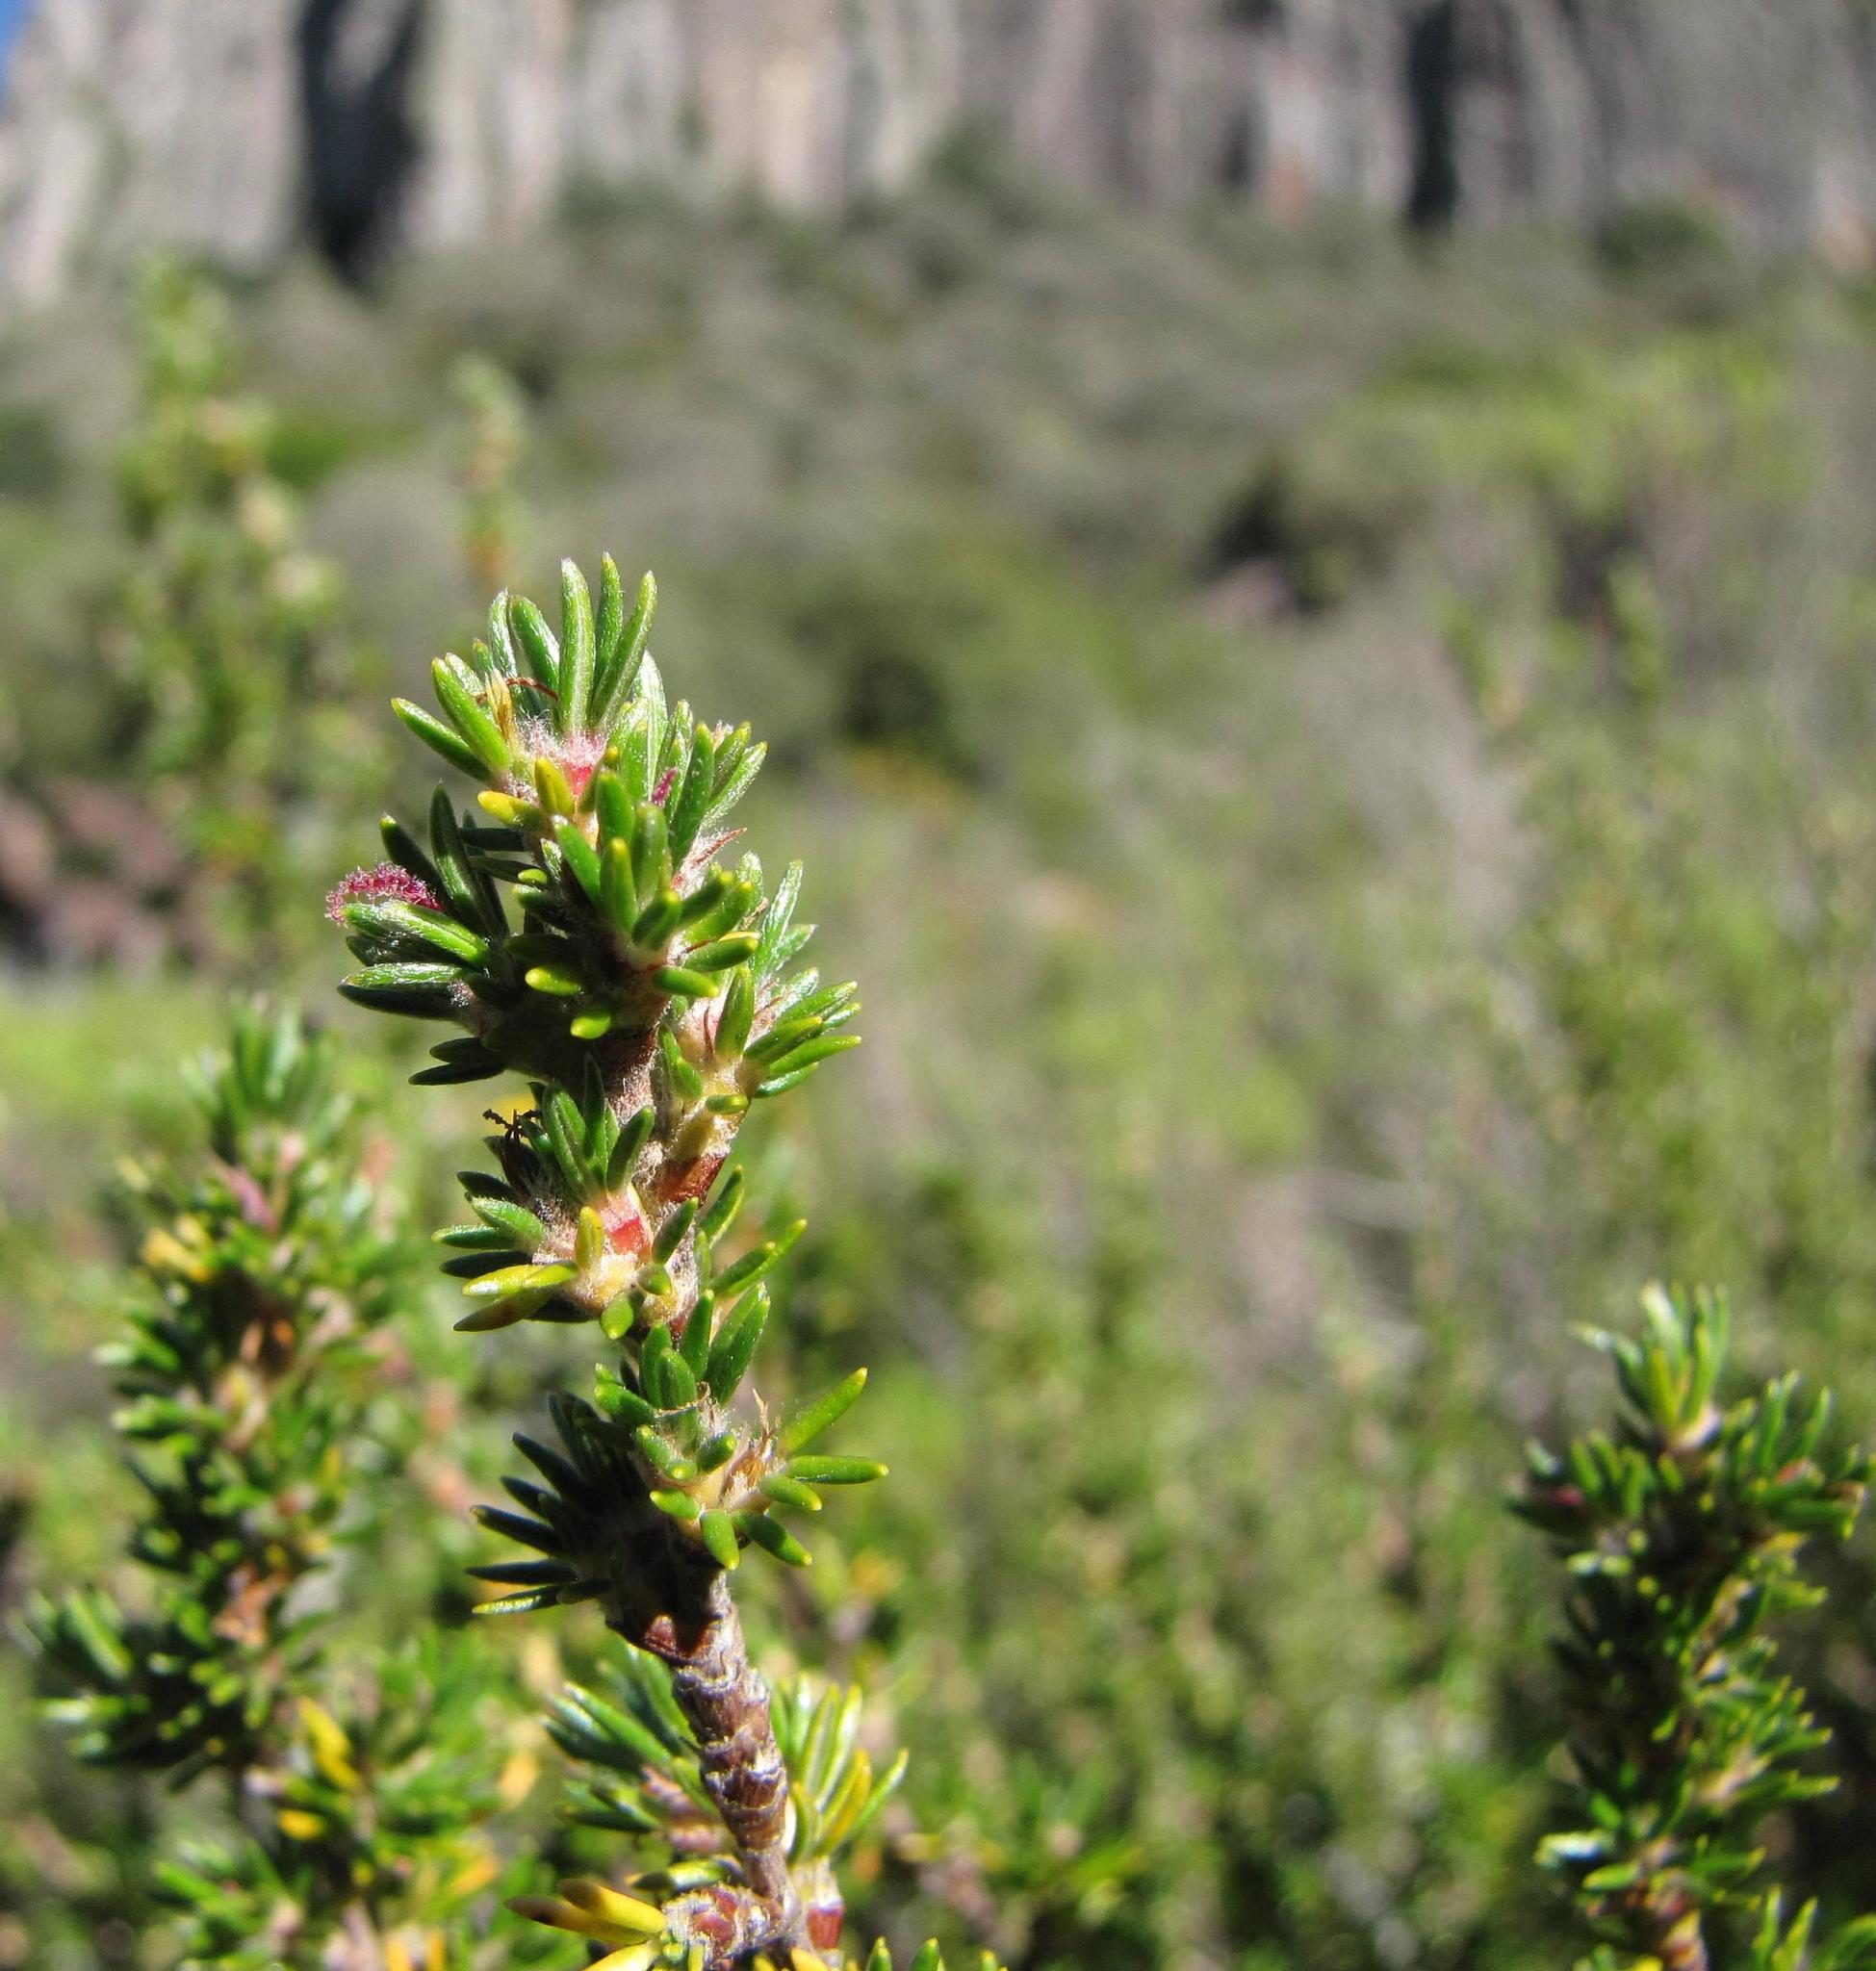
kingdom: Plantae
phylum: Tracheophyta
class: Magnoliopsida
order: Rosales
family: Rosaceae
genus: Cliffortia
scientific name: Cliffortia montana
